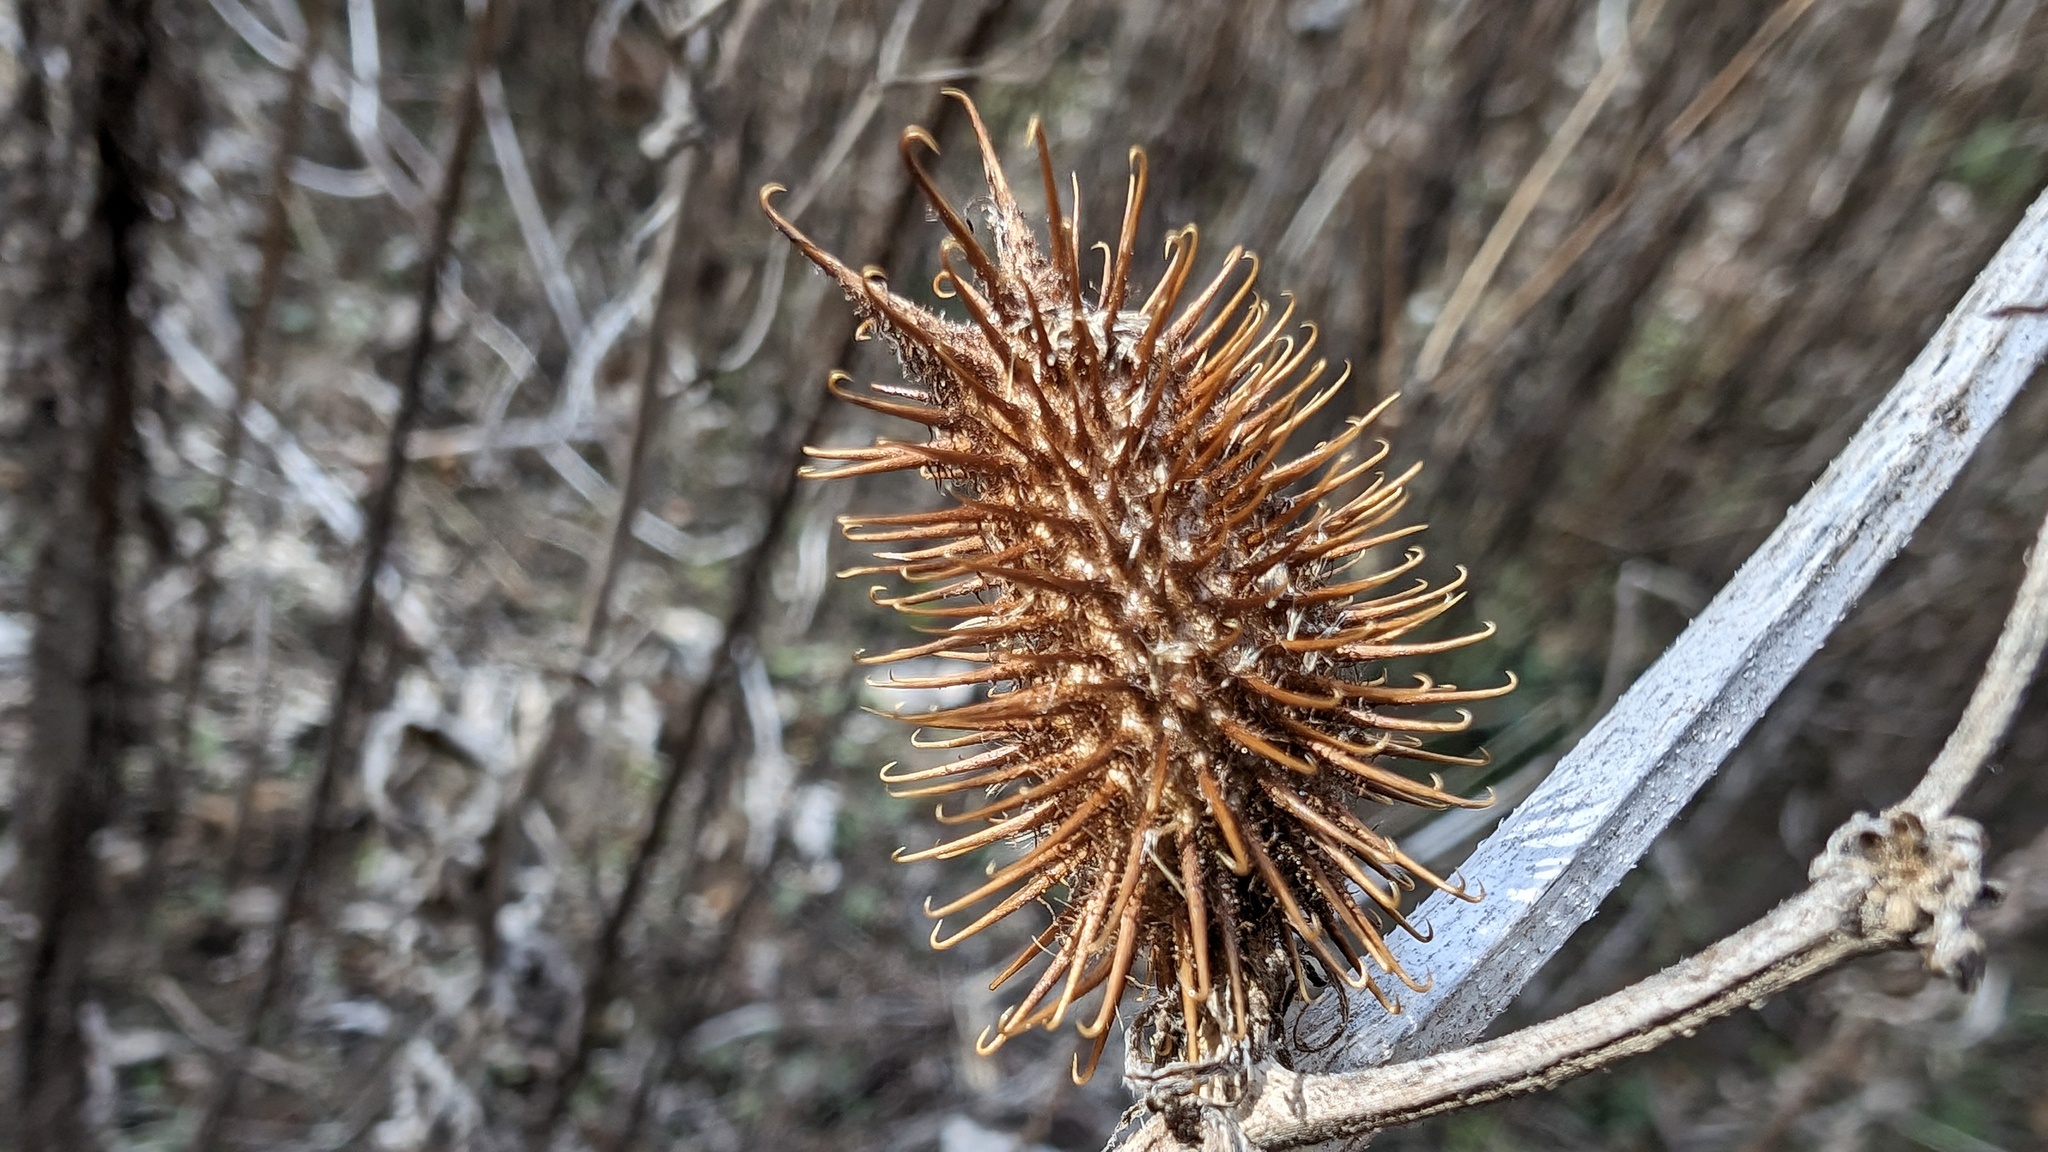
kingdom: Plantae
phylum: Tracheophyta
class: Magnoliopsida
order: Asterales
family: Asteraceae
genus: Xanthium
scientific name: Xanthium orientale
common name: Californian burr
